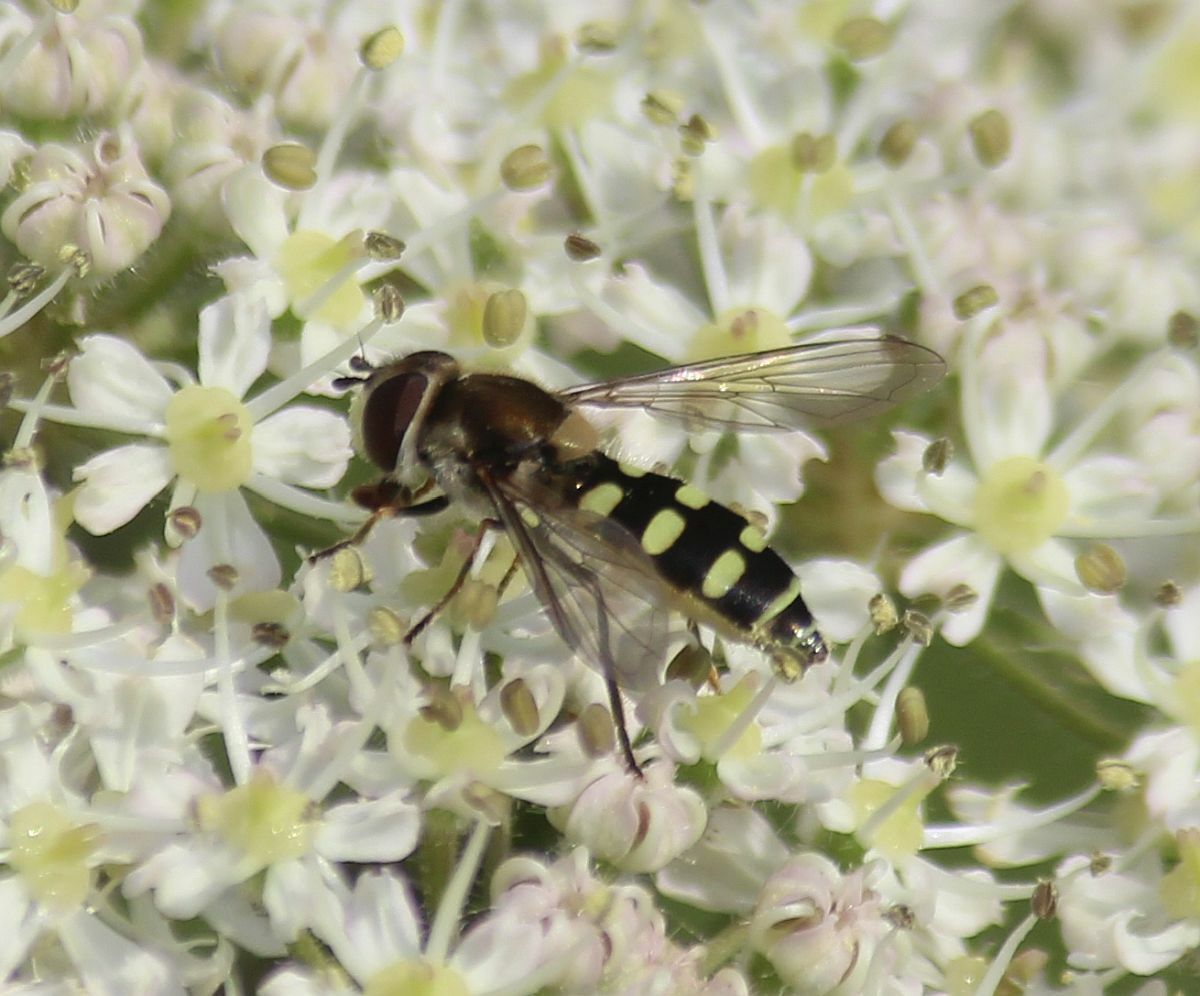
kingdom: Animalia
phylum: Arthropoda
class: Insecta
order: Diptera
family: Syrphidae
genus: Melangyna
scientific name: Melangyna
